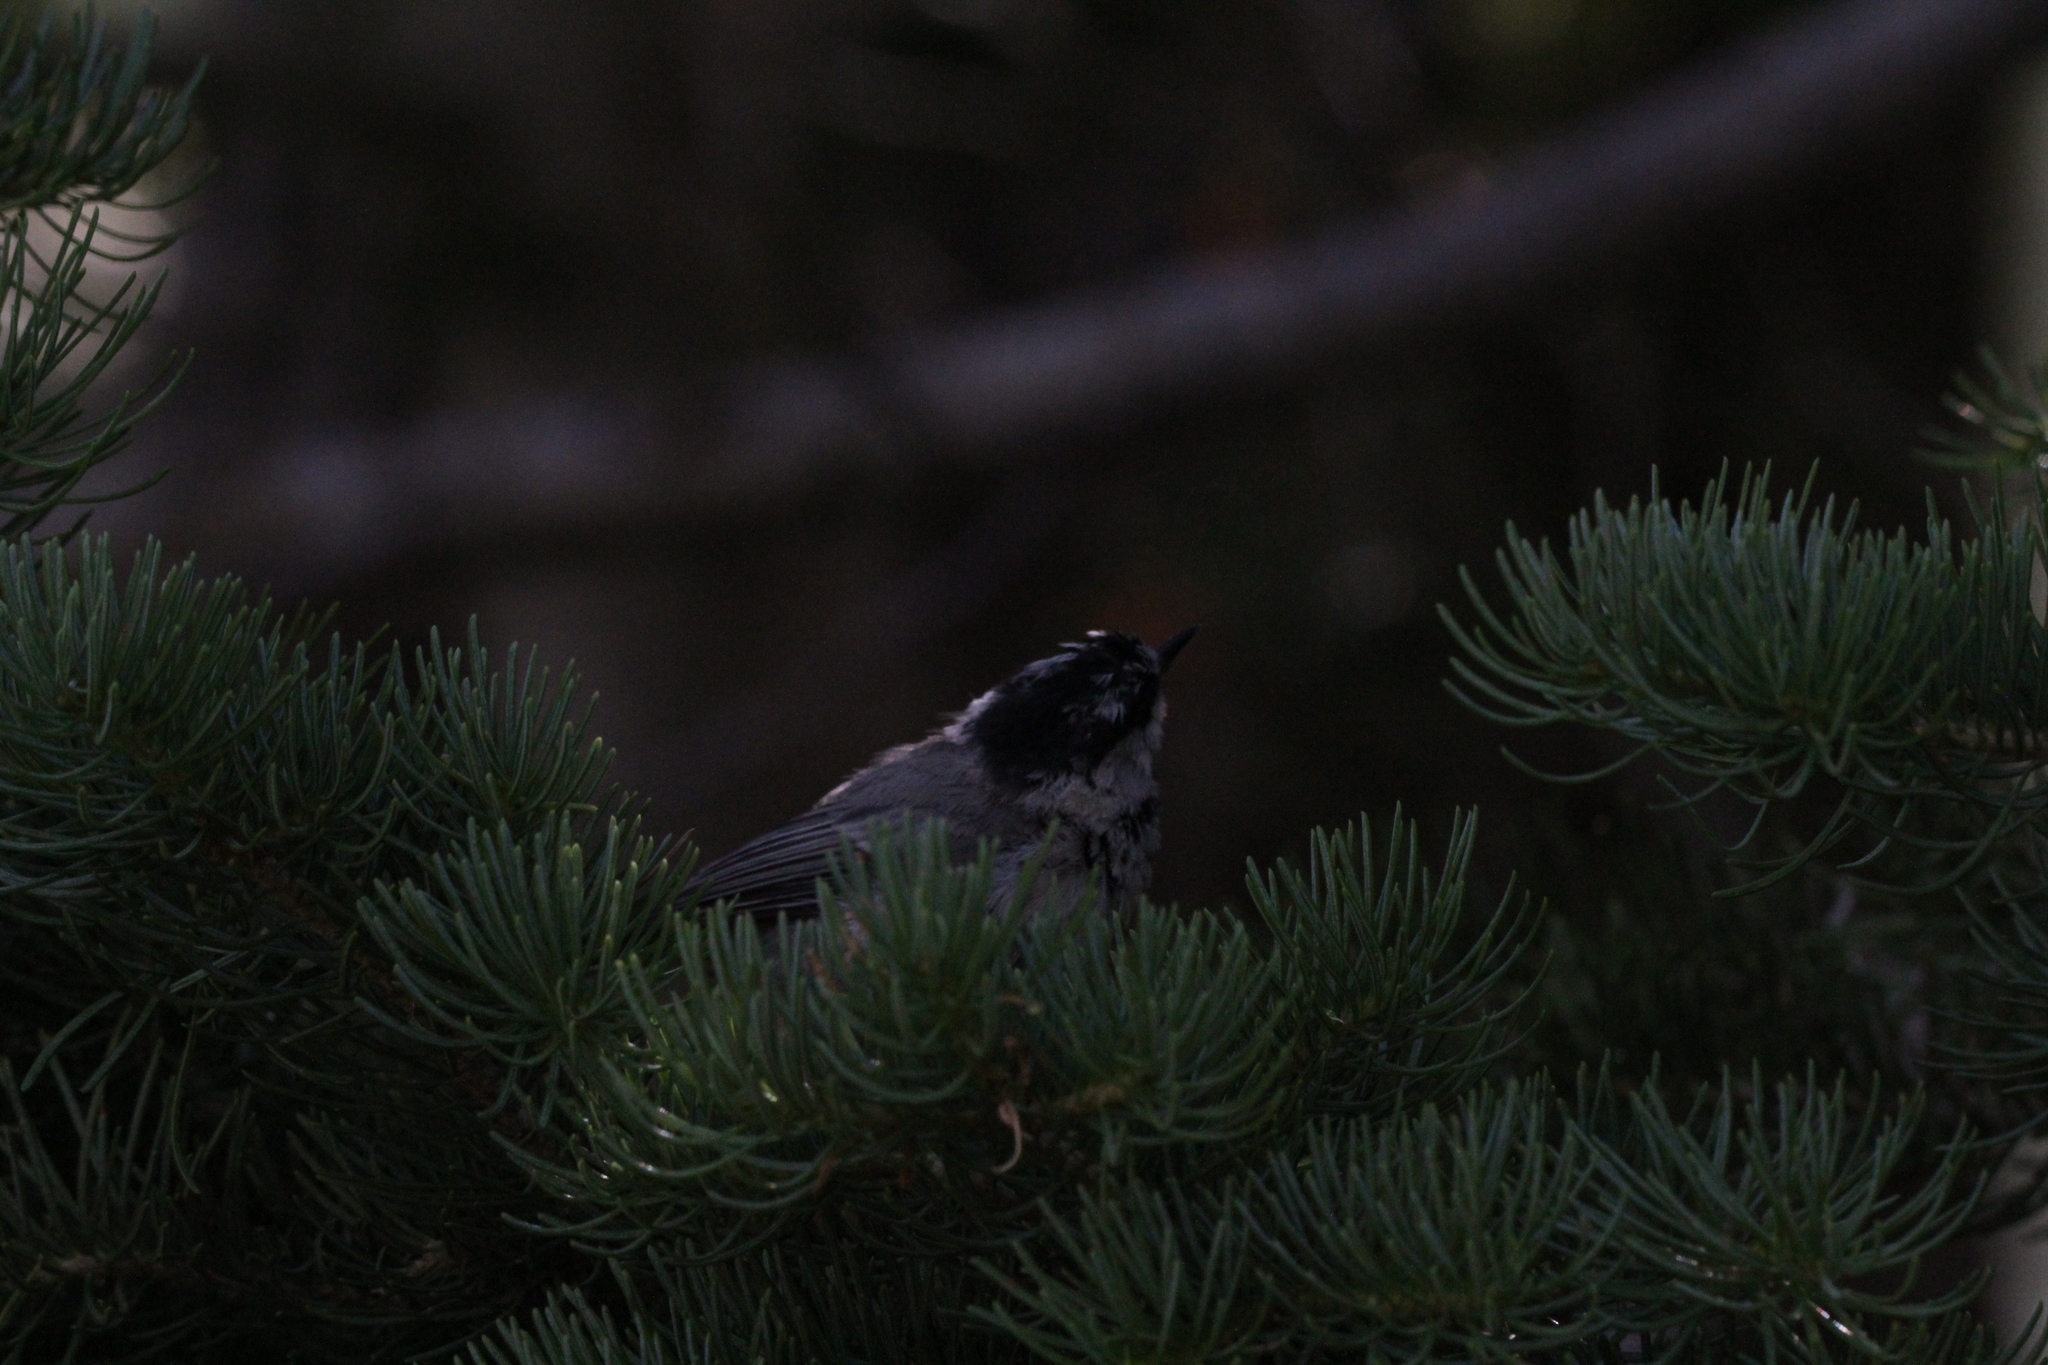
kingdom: Animalia
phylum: Chordata
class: Aves
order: Passeriformes
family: Paridae
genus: Poecile
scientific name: Poecile gambeli
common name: Mountain chickadee
